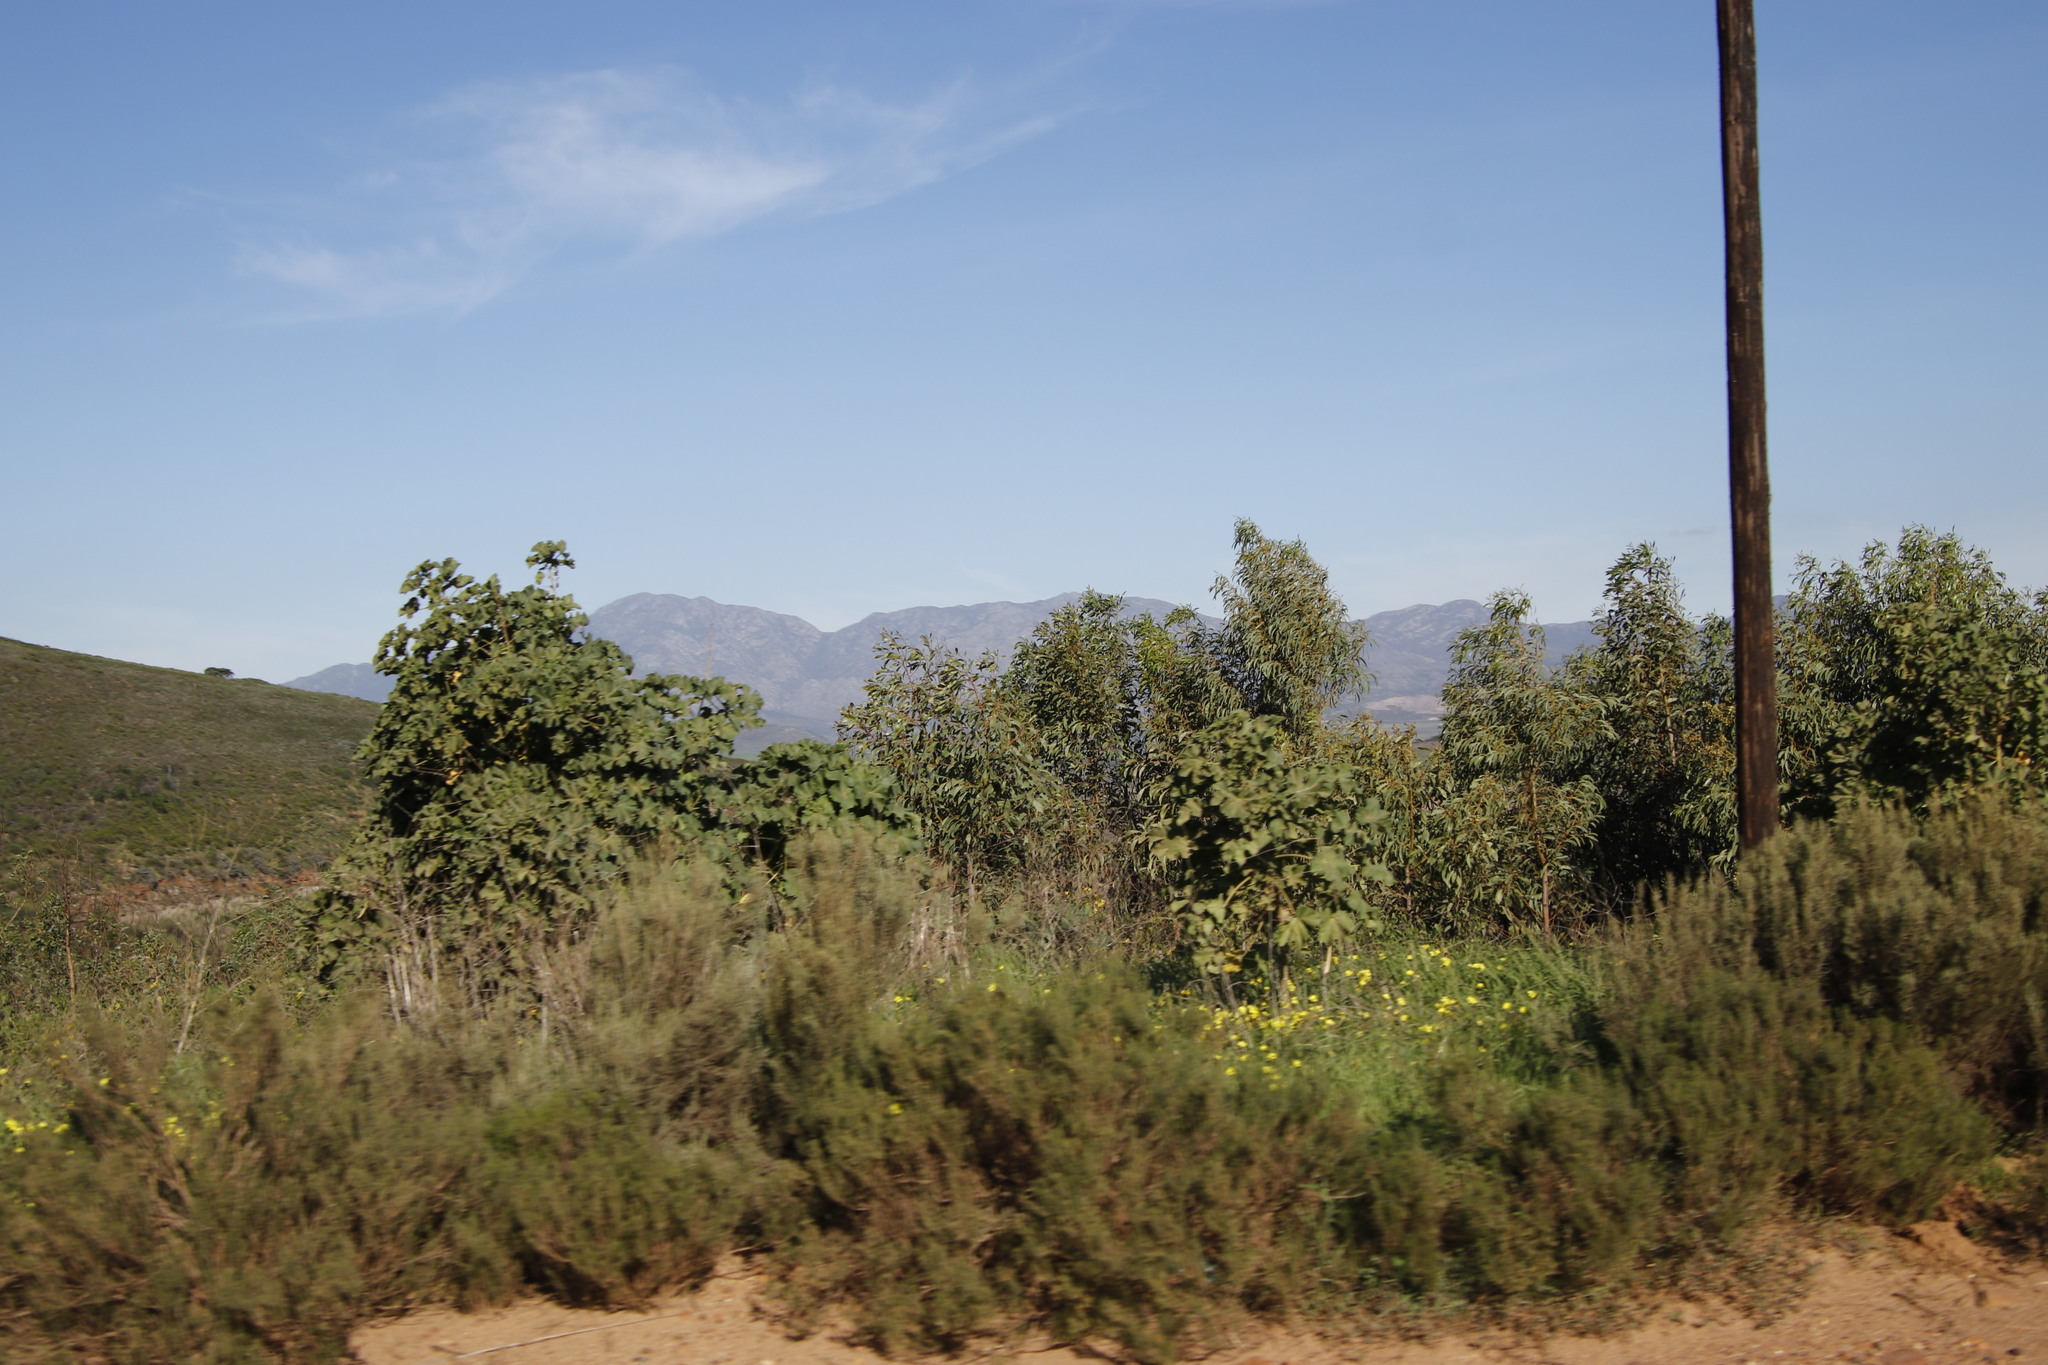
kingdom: Plantae
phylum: Tracheophyta
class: Magnoliopsida
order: Fabales
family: Fabaceae
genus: Acacia
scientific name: Acacia pycnantha
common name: Golden wattle
